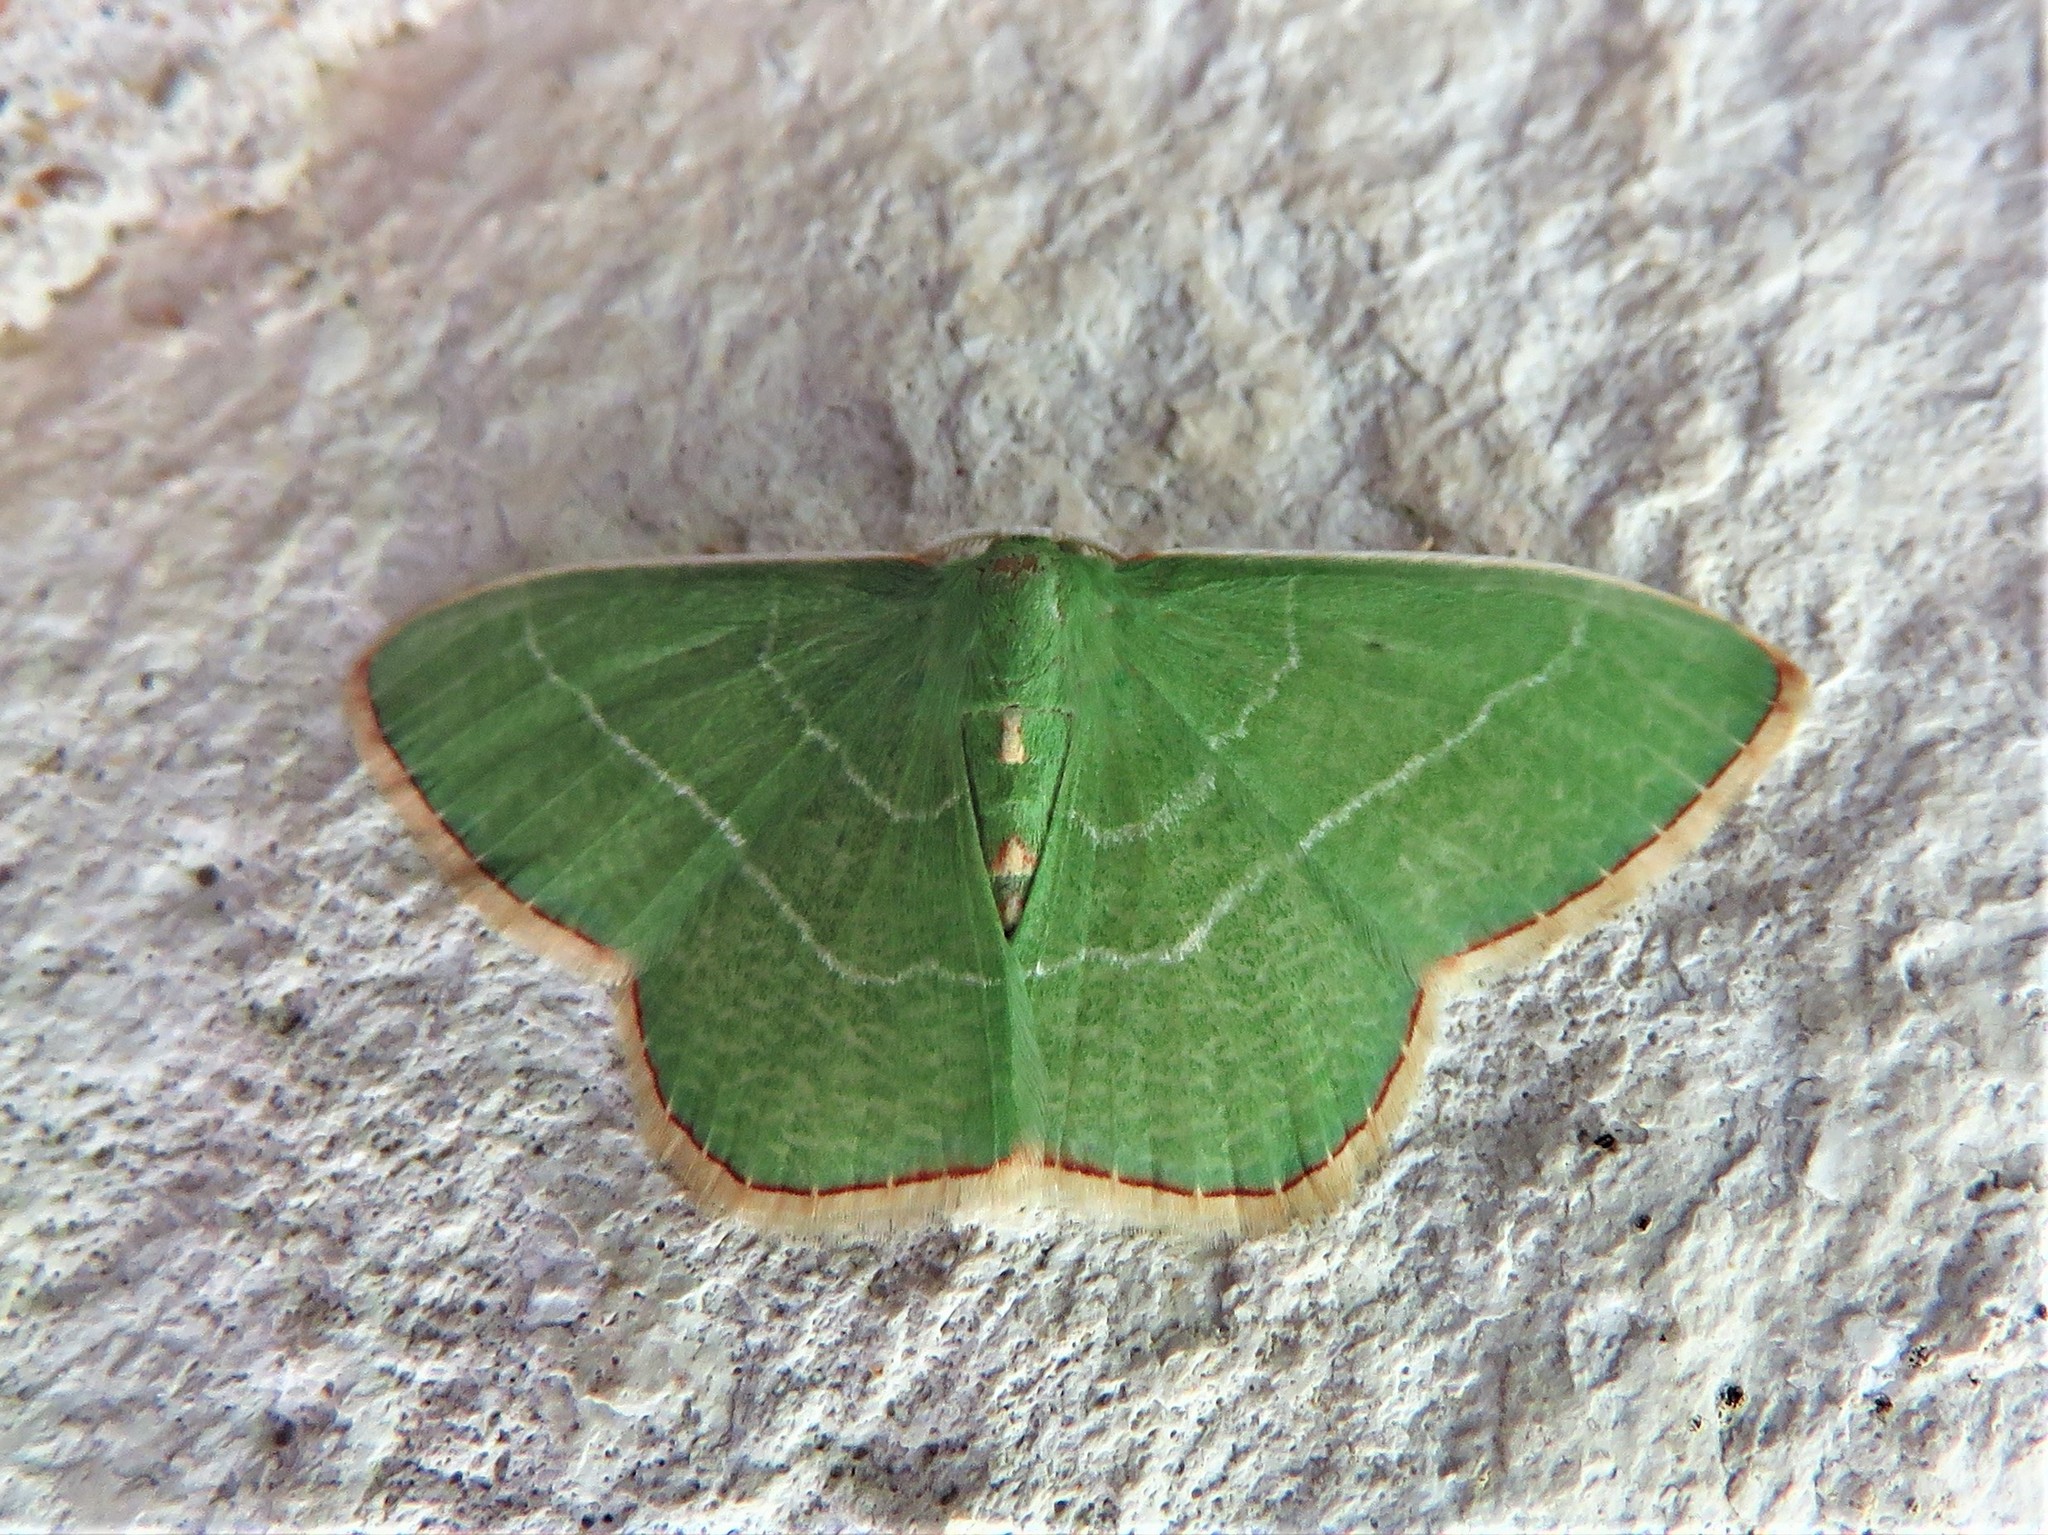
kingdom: Animalia
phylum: Arthropoda
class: Insecta
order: Lepidoptera
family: Geometridae
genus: Nemoria
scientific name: Nemoria bistriaria
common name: Red-fringed emerald
